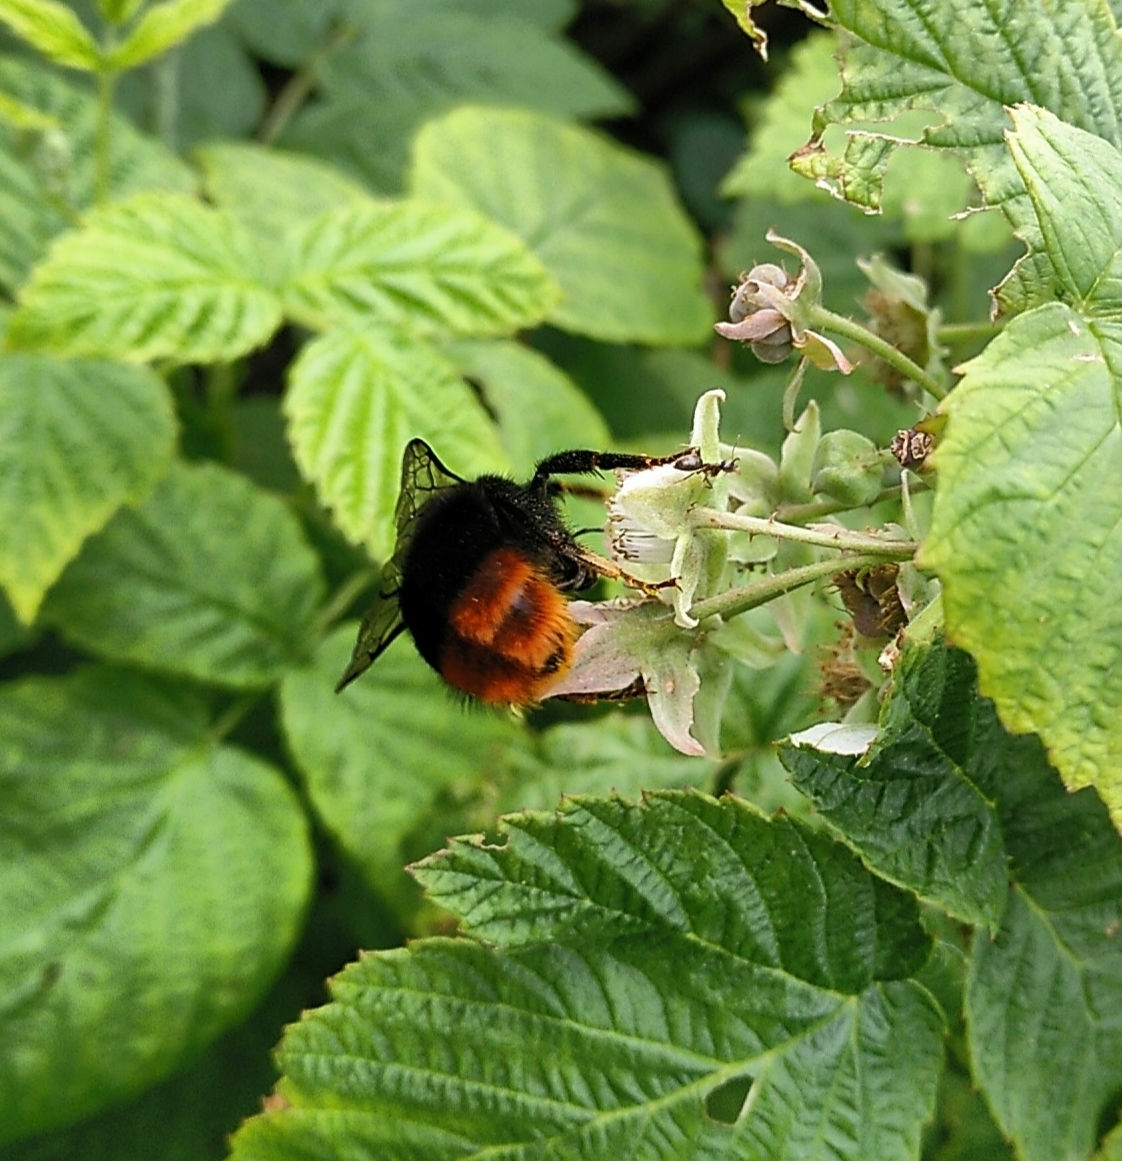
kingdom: Animalia
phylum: Arthropoda
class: Insecta
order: Hymenoptera
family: Apidae
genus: Bombus
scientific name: Bombus lapidarius
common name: Large red-tailed humble-bee
